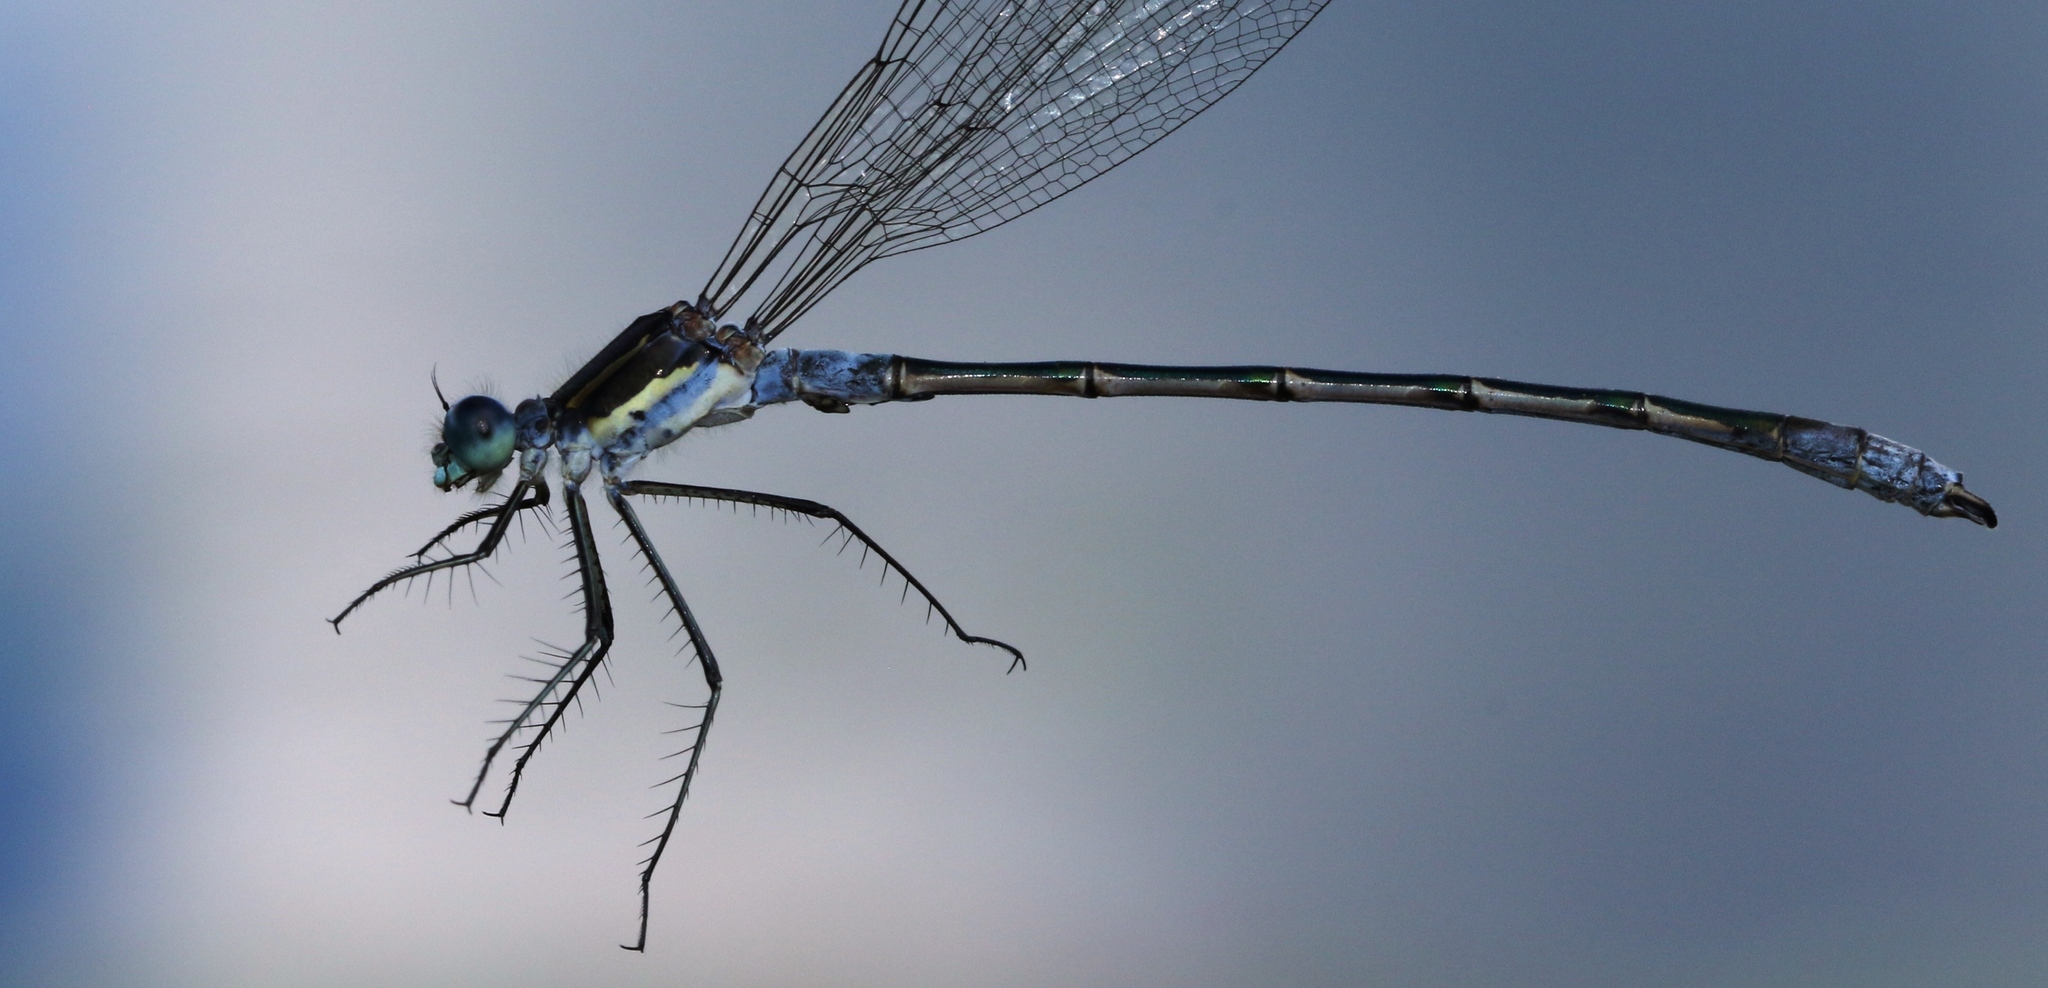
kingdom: Animalia
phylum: Arthropoda
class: Insecta
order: Odonata
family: Lestidae
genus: Lestes
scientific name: Lestes disjunctus
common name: Northern spreadwing
